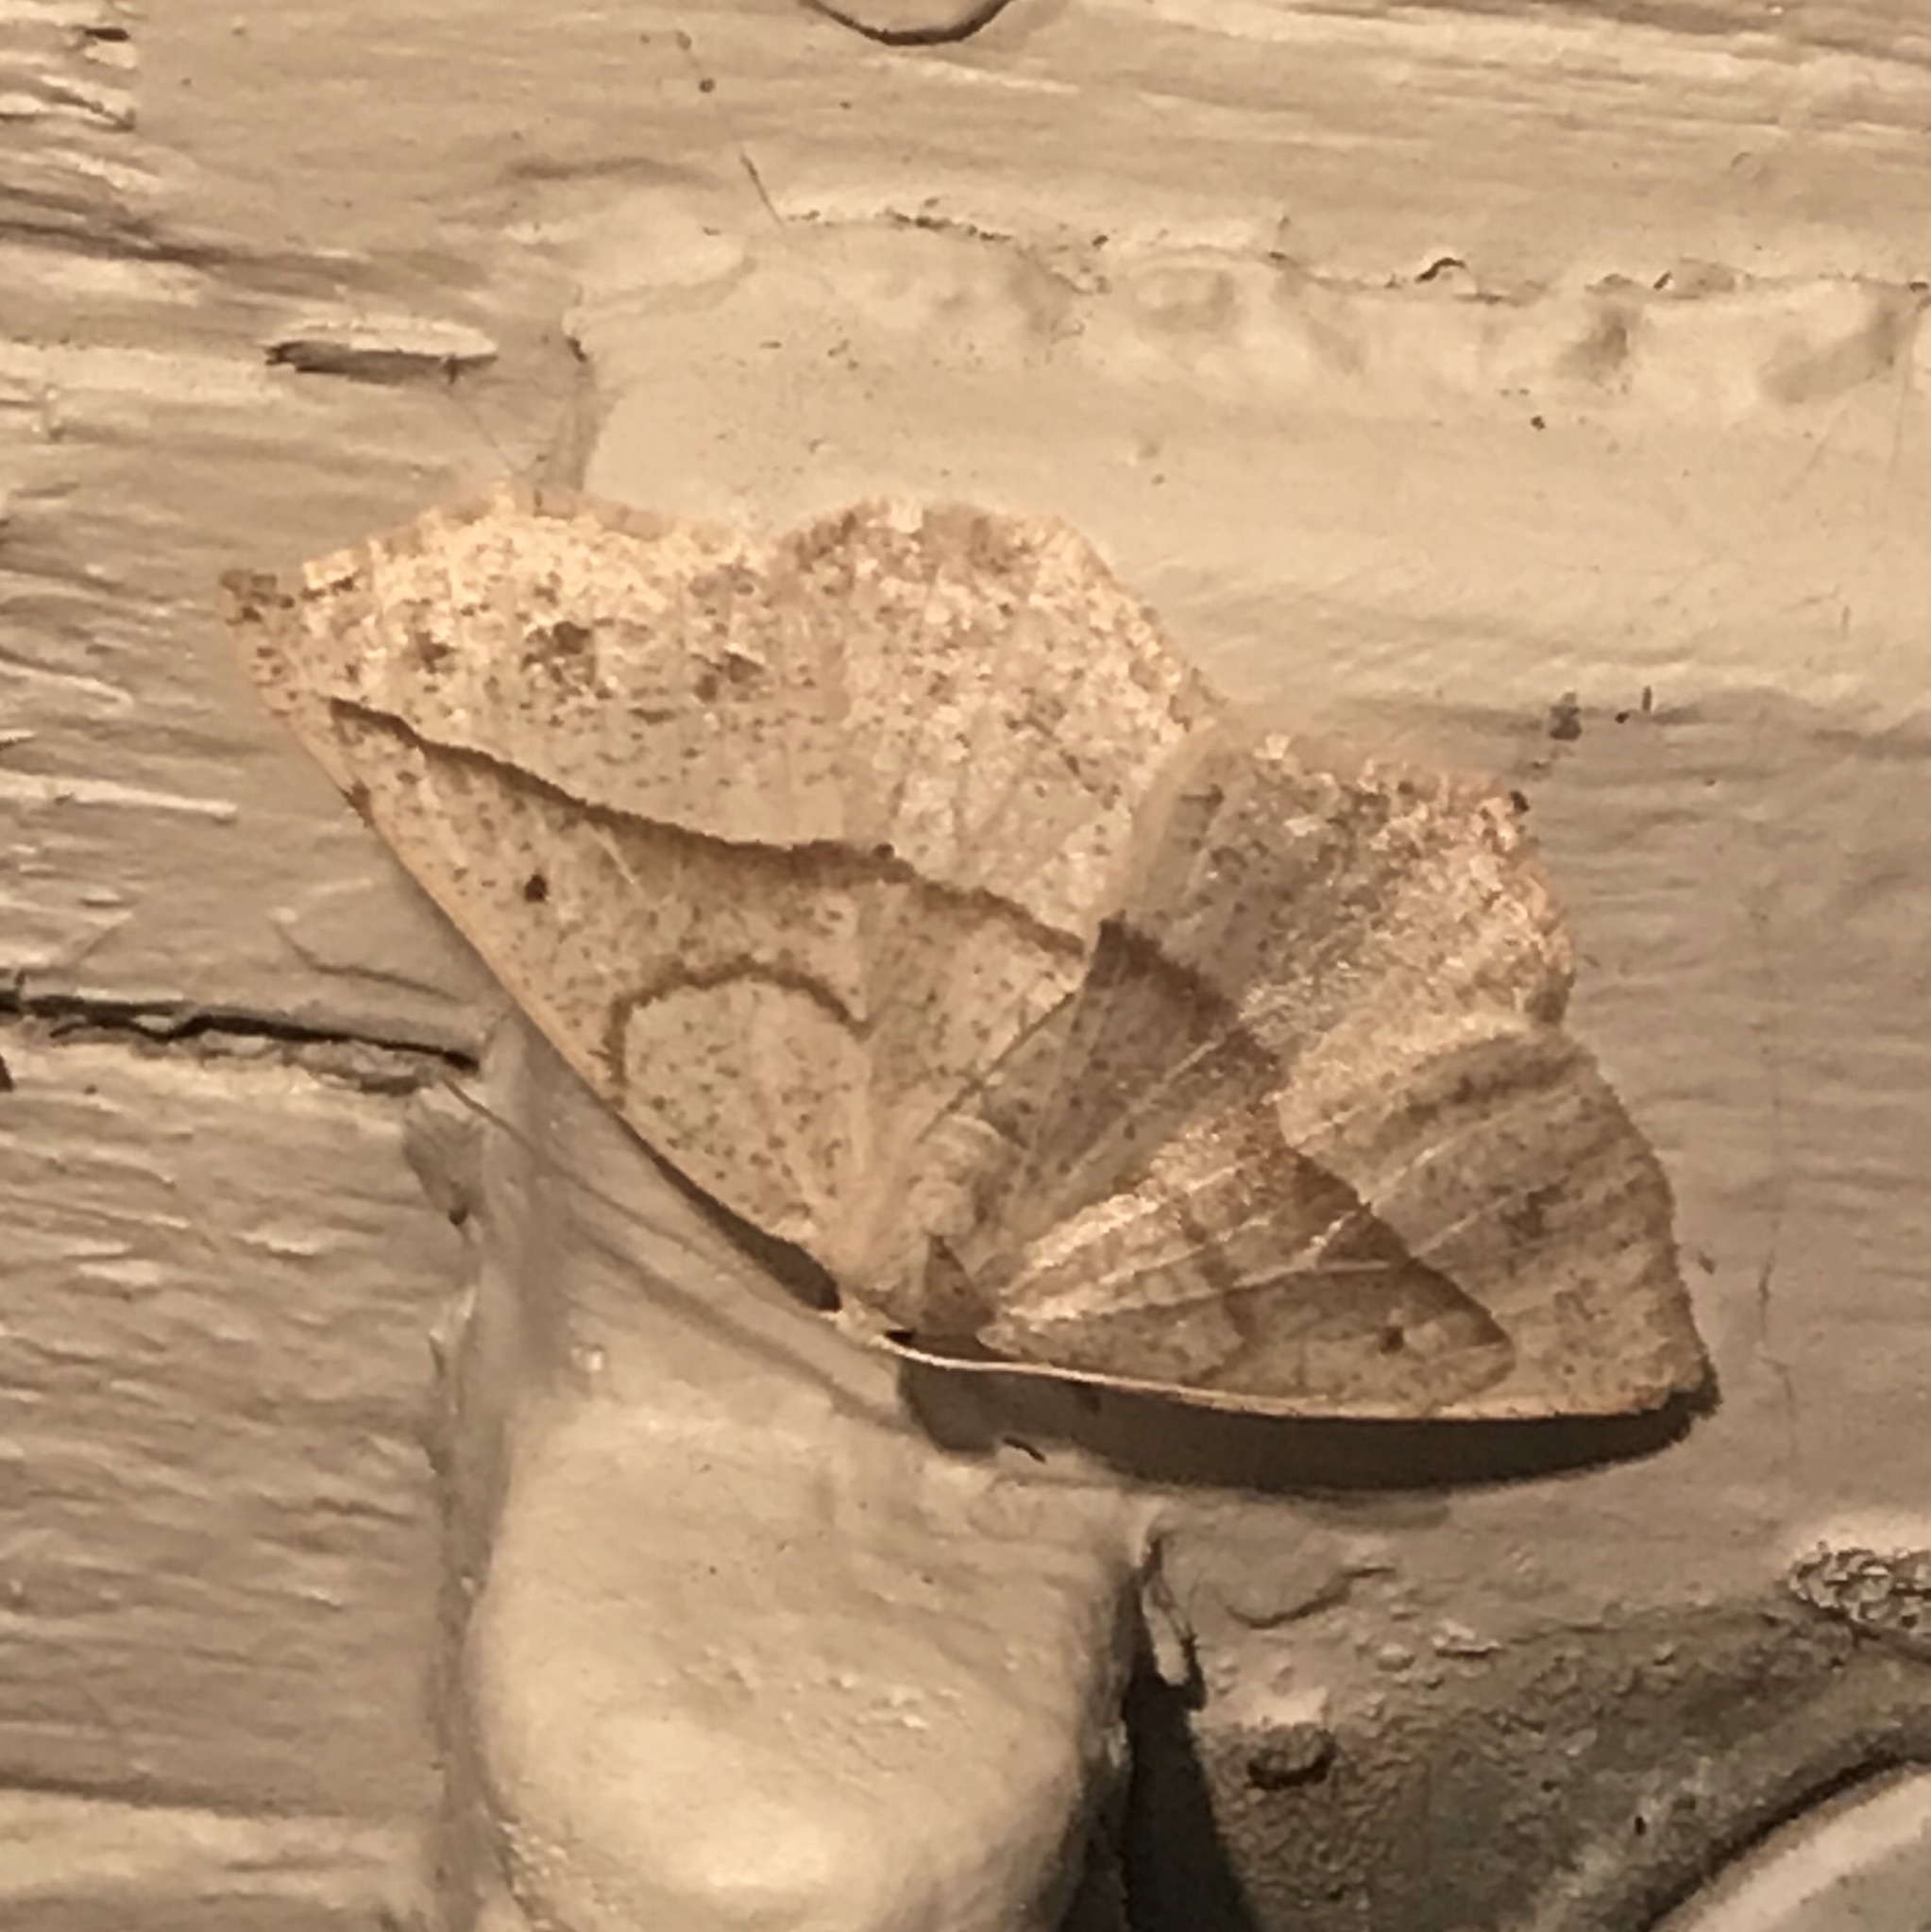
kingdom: Animalia
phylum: Arthropoda
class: Insecta
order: Lepidoptera
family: Geometridae
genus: Eusarca
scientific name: Eusarca confusaria
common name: Confused eusarca
